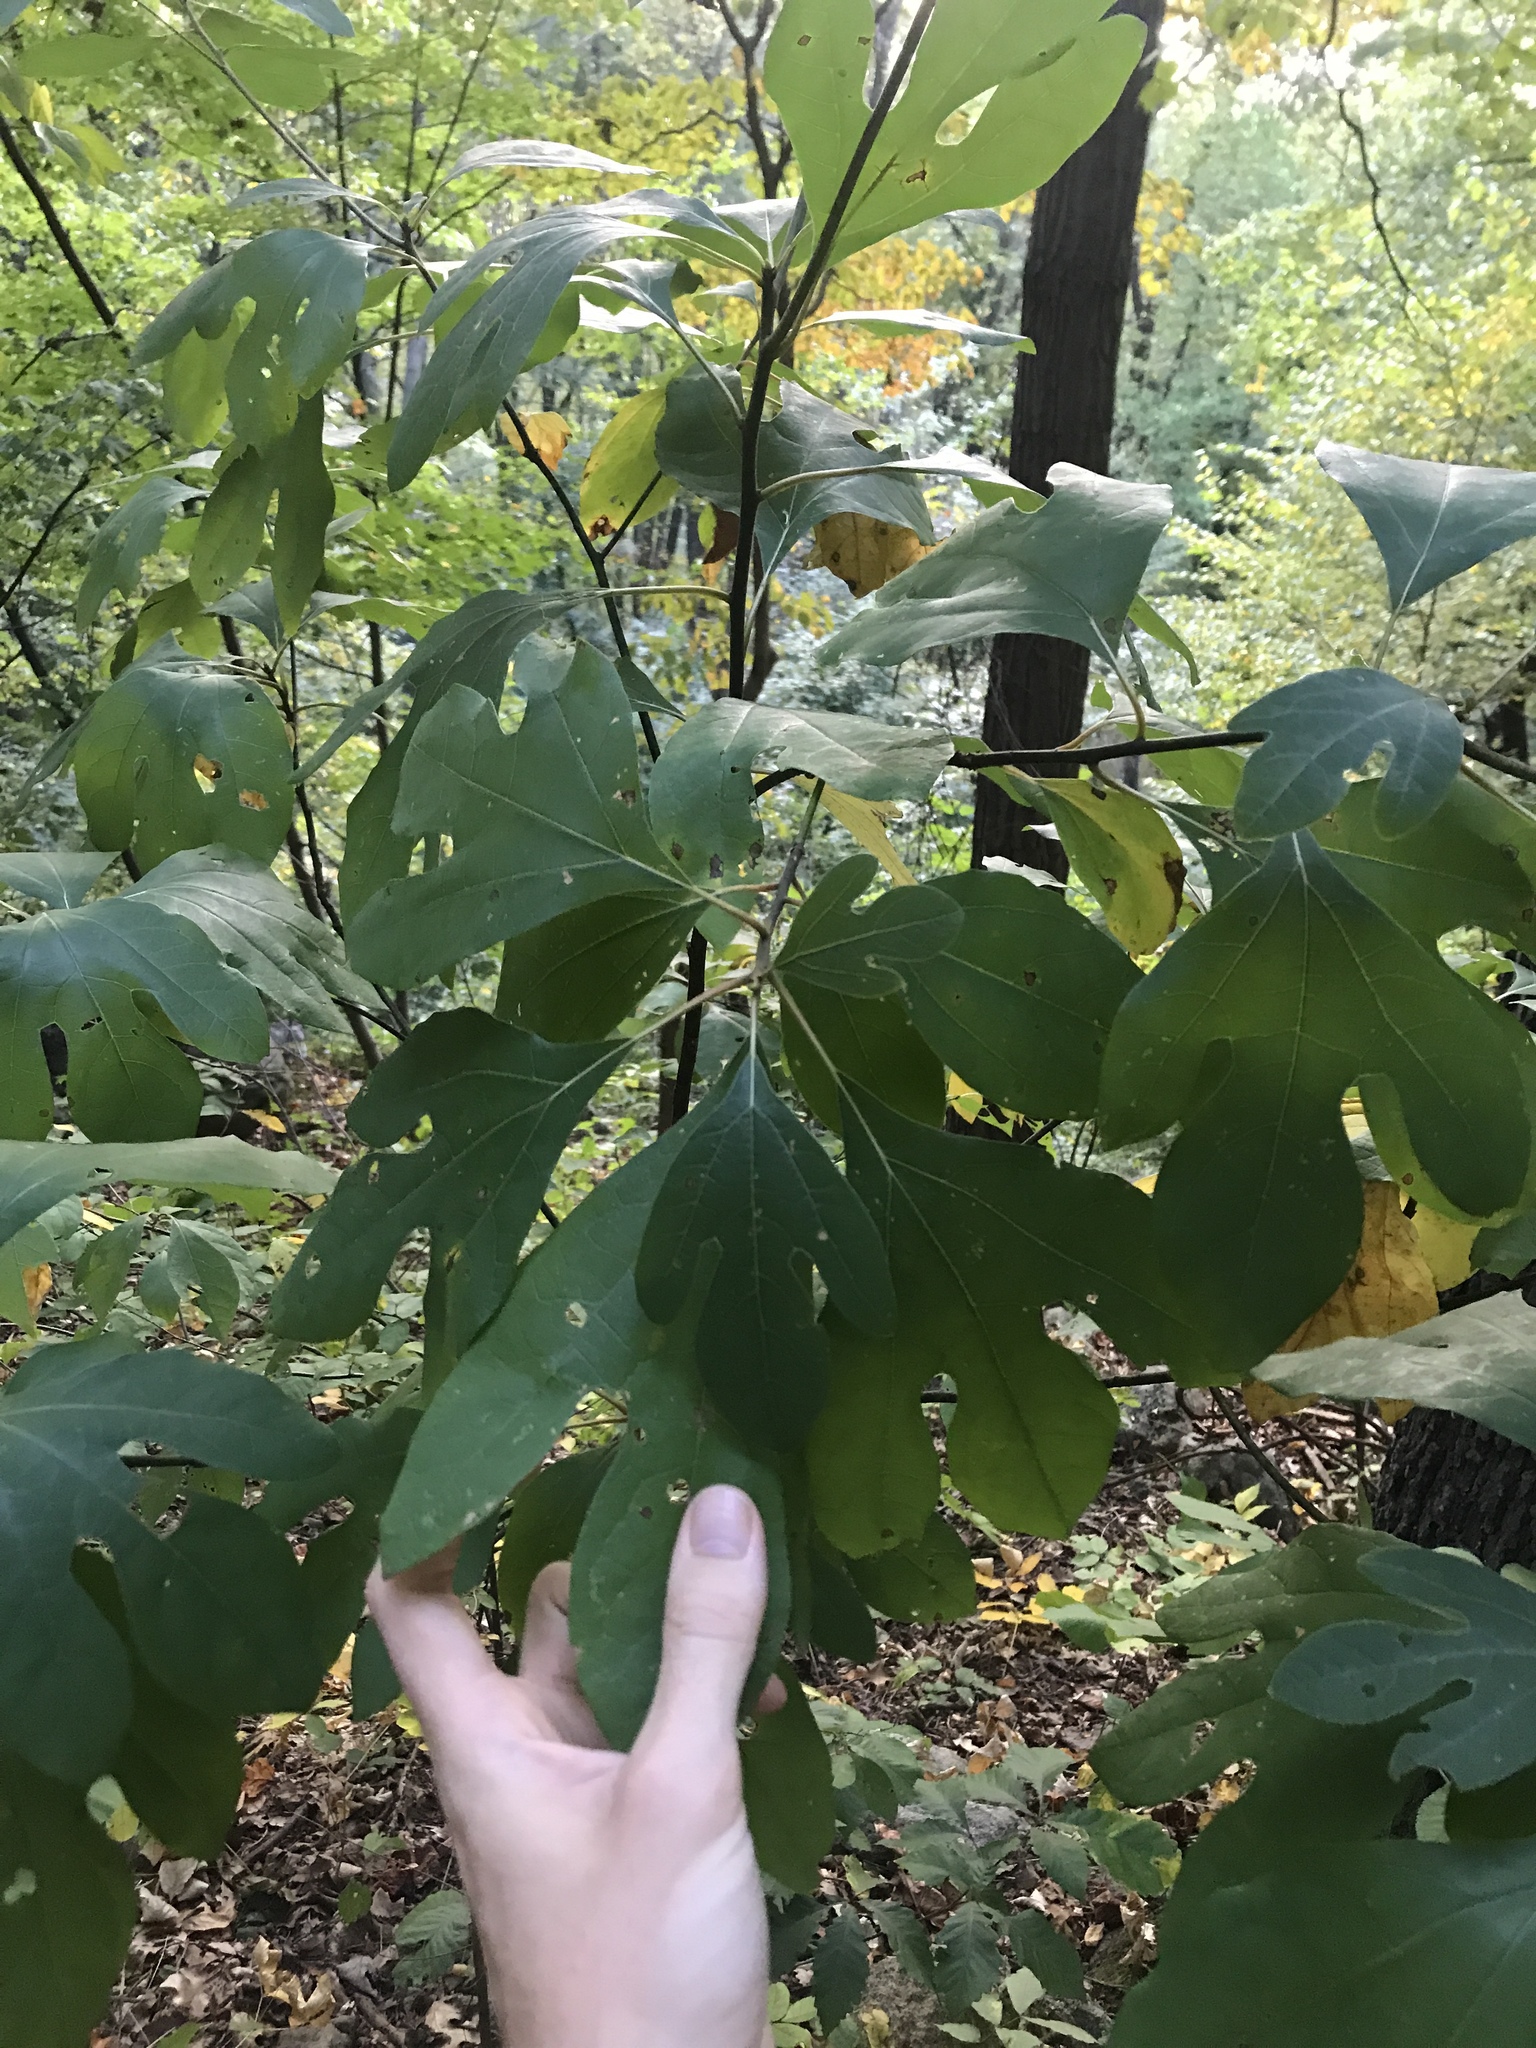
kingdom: Plantae
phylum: Tracheophyta
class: Magnoliopsida
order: Laurales
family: Lauraceae
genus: Sassafras
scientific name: Sassafras albidum
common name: Sassafras
